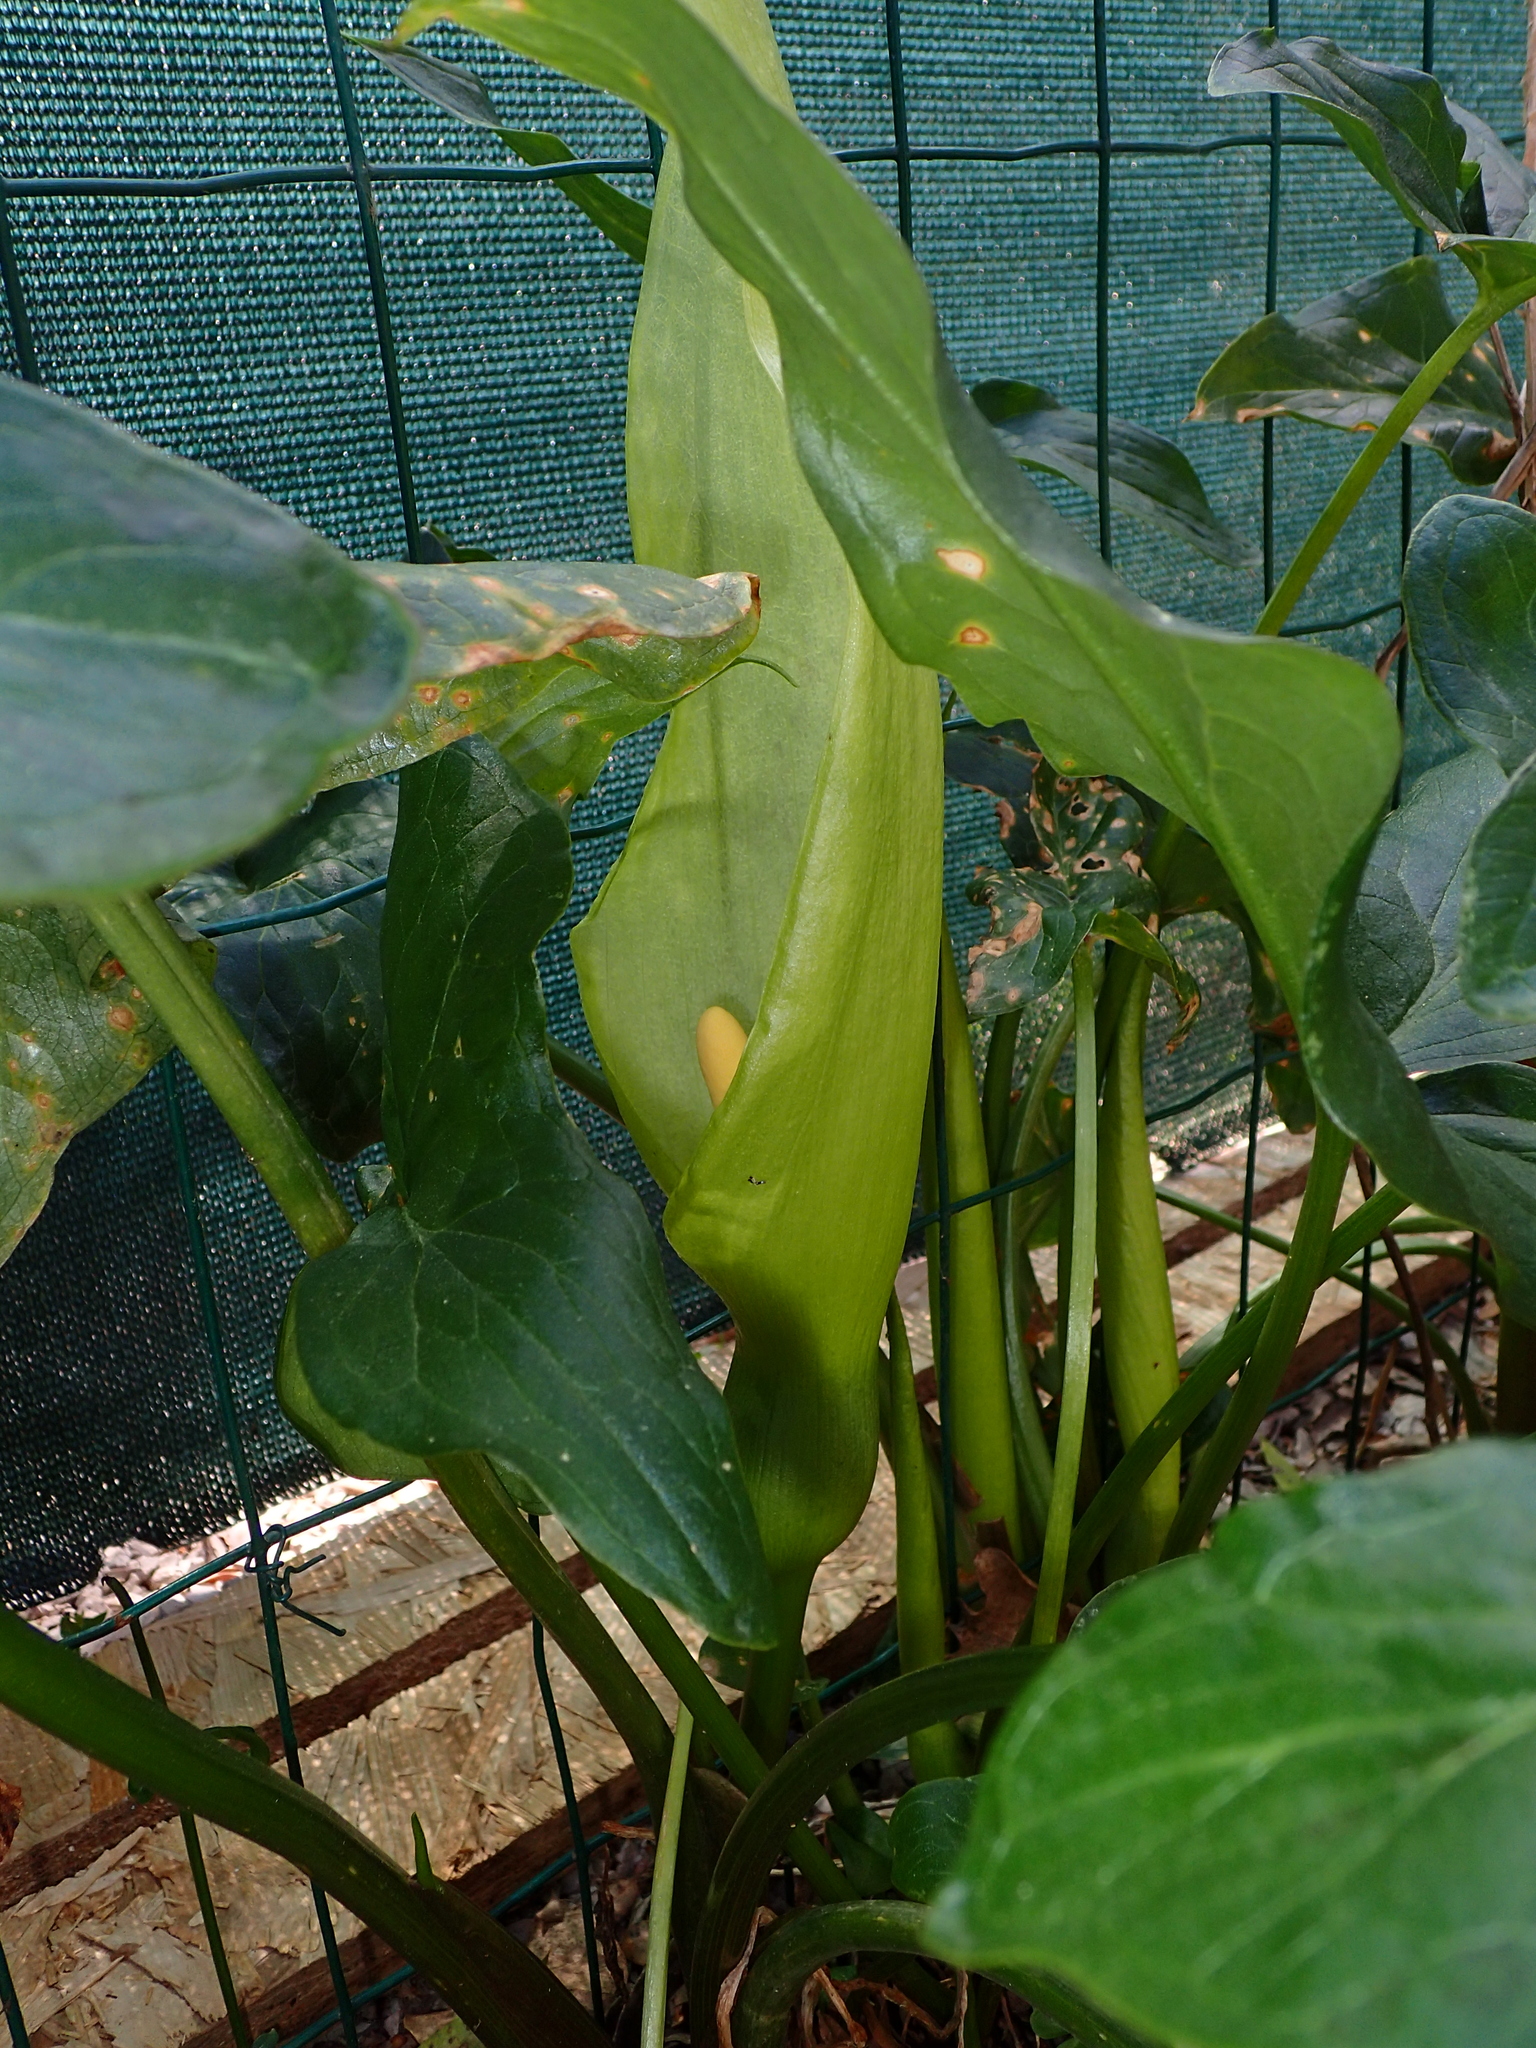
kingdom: Plantae
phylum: Tracheophyta
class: Liliopsida
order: Alismatales
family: Araceae
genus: Arum
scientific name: Arum italicum
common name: Italian lords-and-ladies
